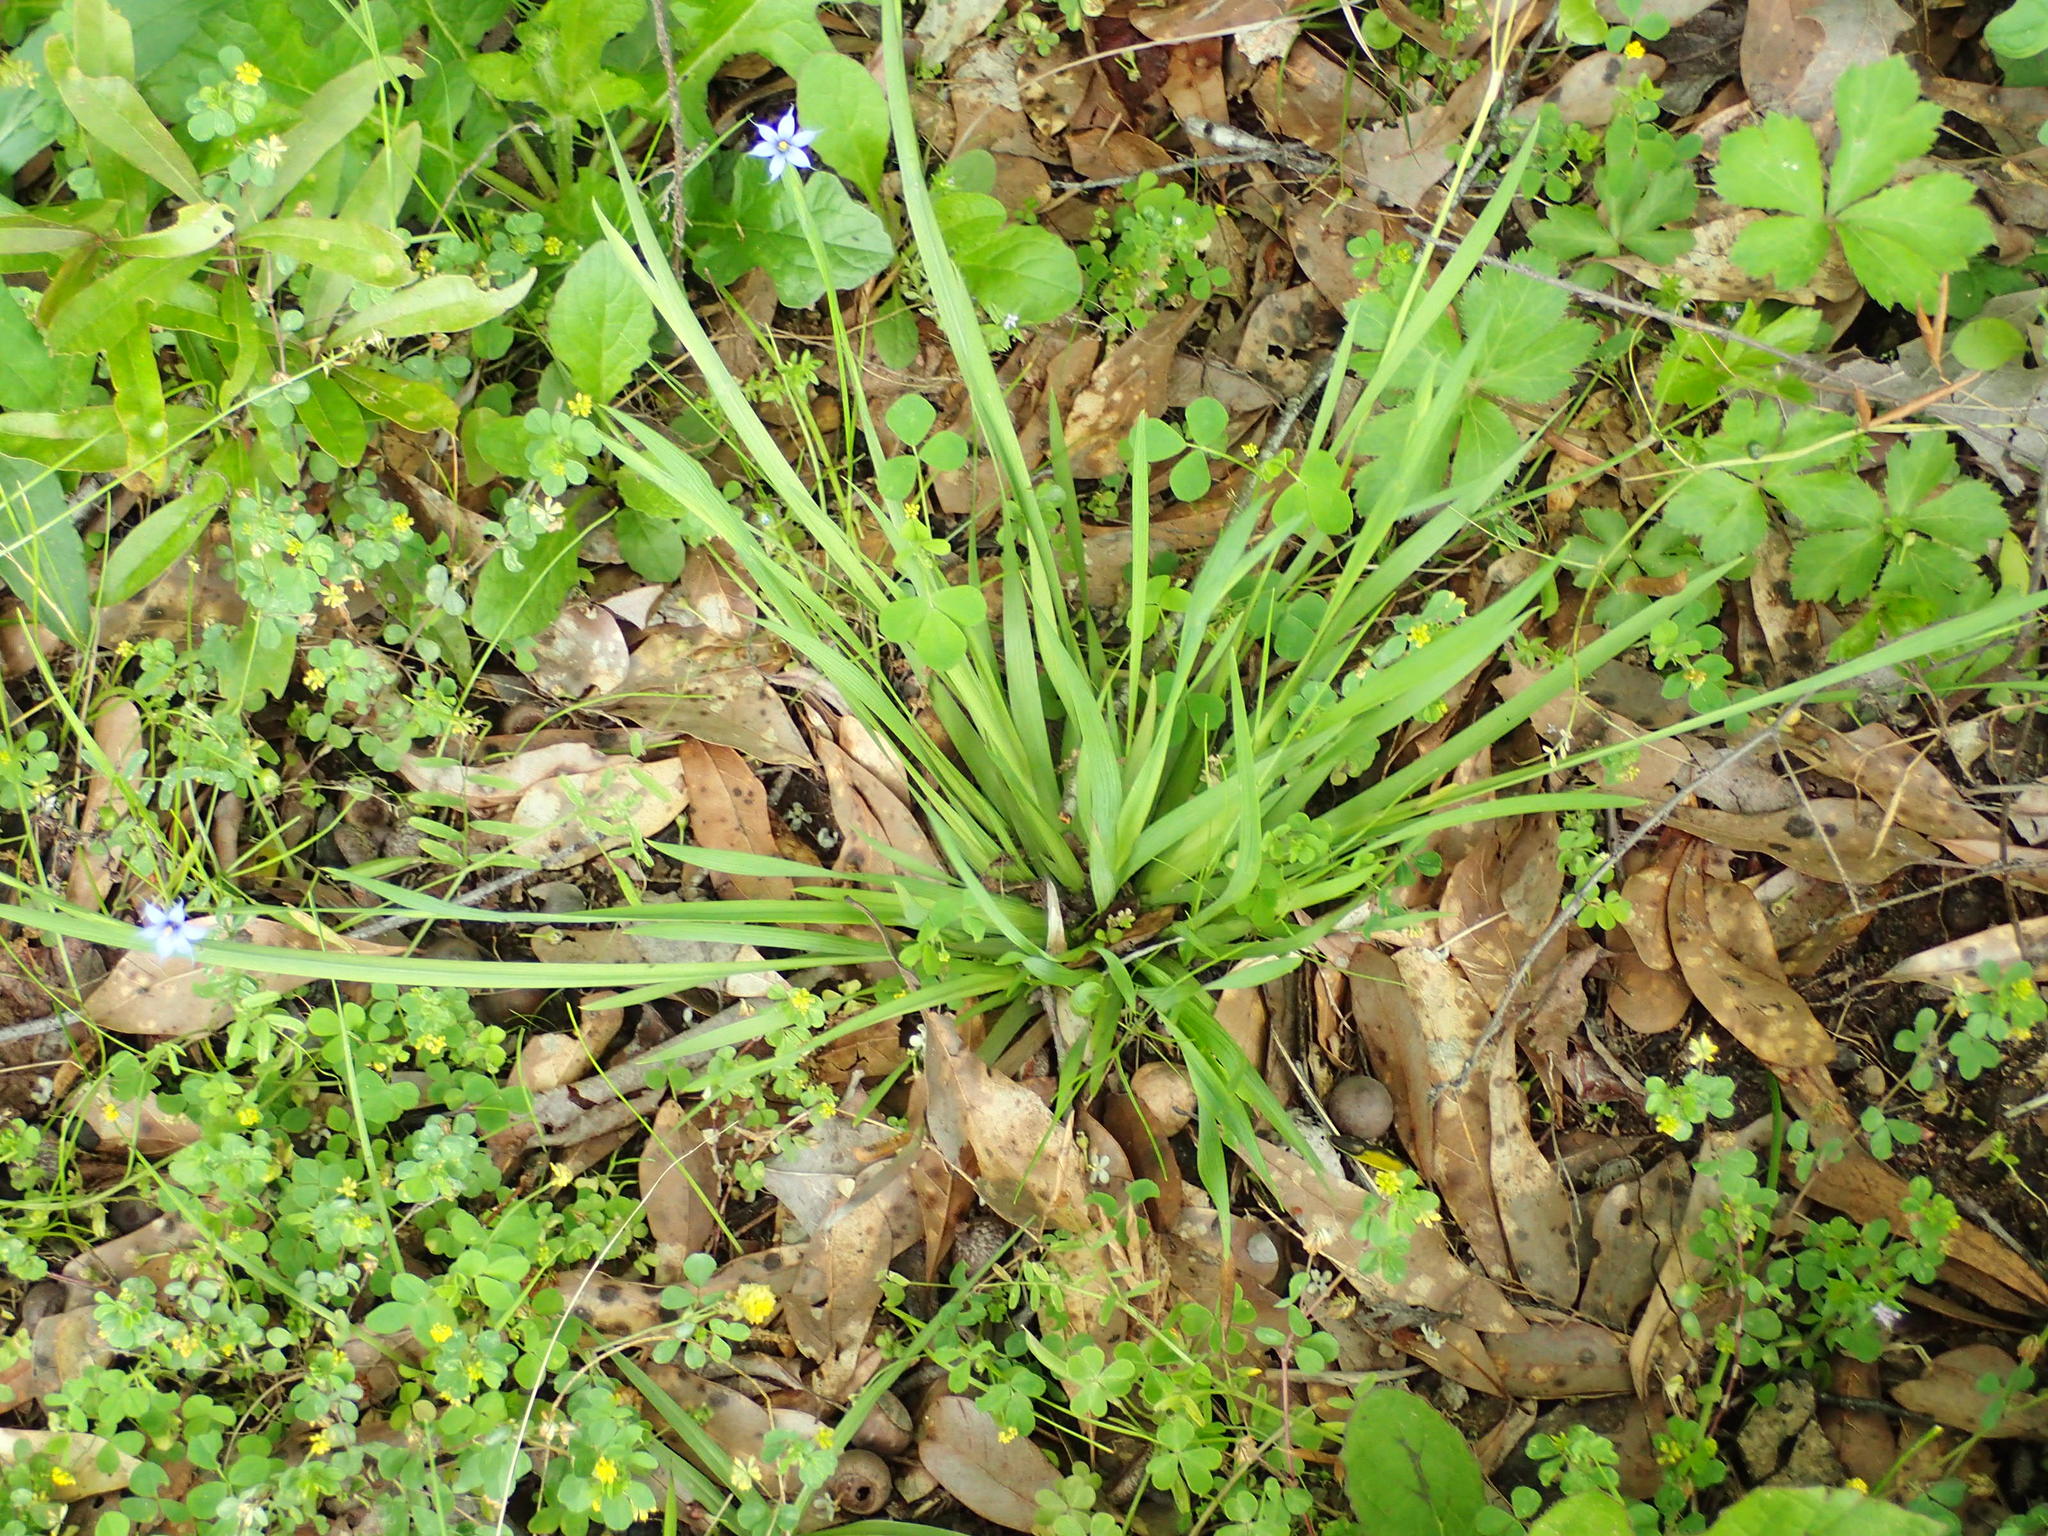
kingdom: Plantae
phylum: Tracheophyta
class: Liliopsida
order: Asparagales
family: Iridaceae
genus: Sisyrinchium
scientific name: Sisyrinchium micranthum
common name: Bermuda pigroot
